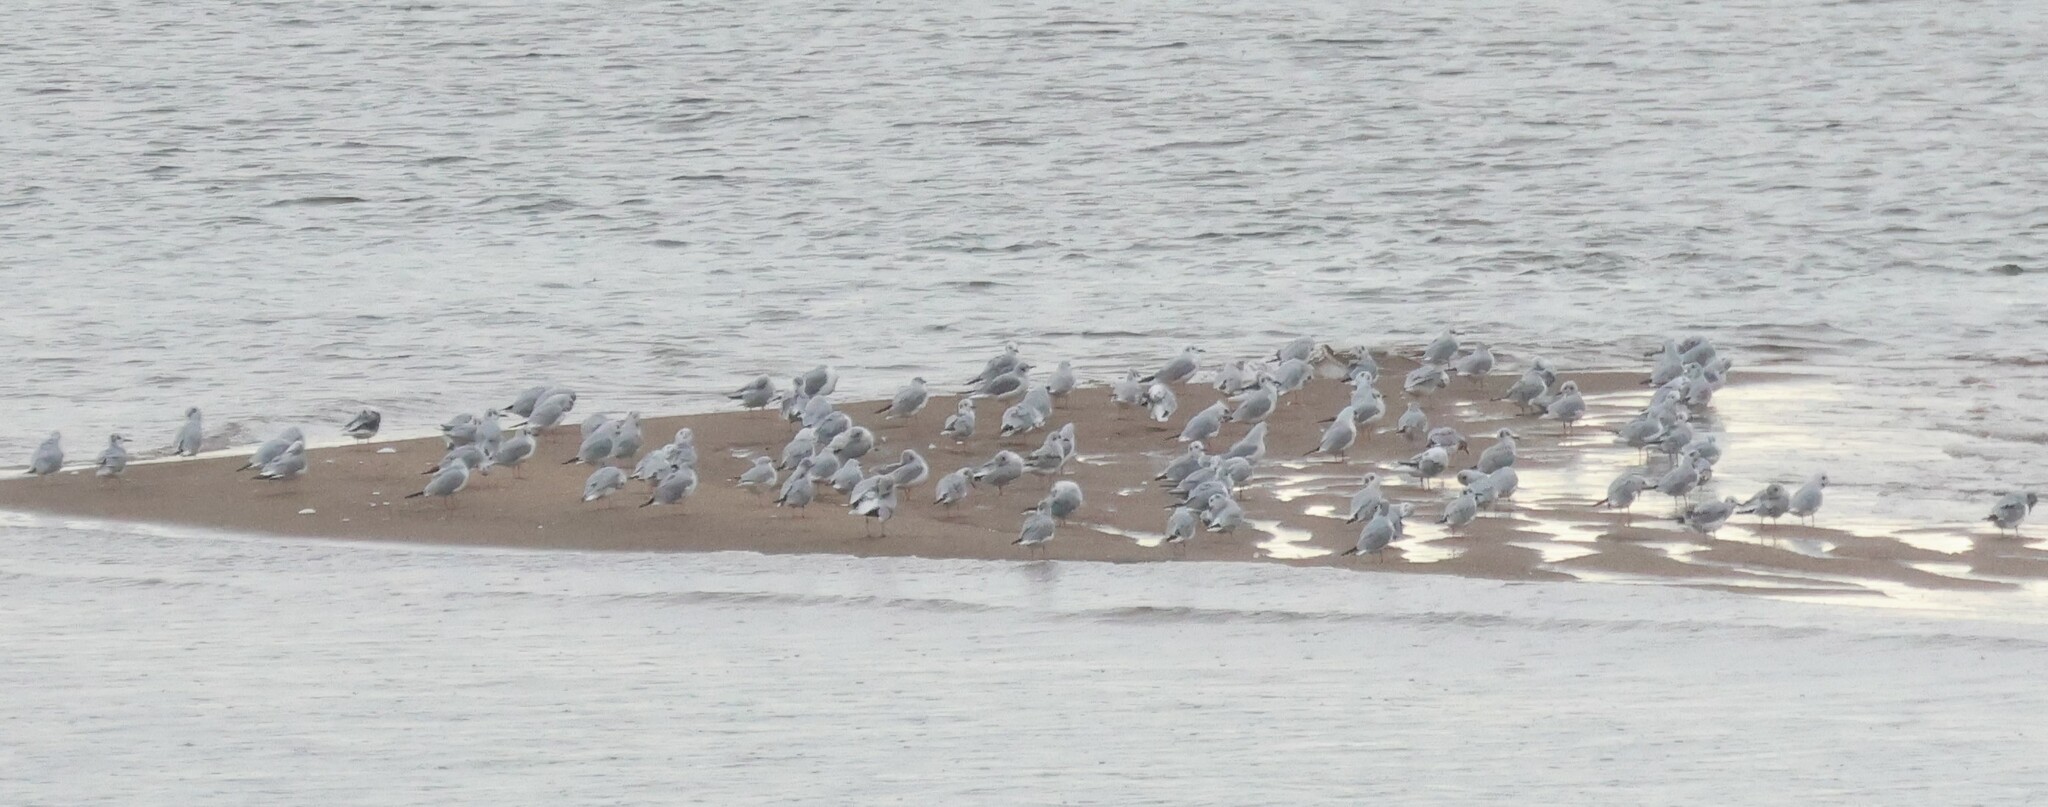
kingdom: Animalia
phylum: Chordata
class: Aves
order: Charadriiformes
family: Laridae
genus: Chroicocephalus
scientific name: Chroicocephalus philadelphia
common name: Bonaparte's gull
